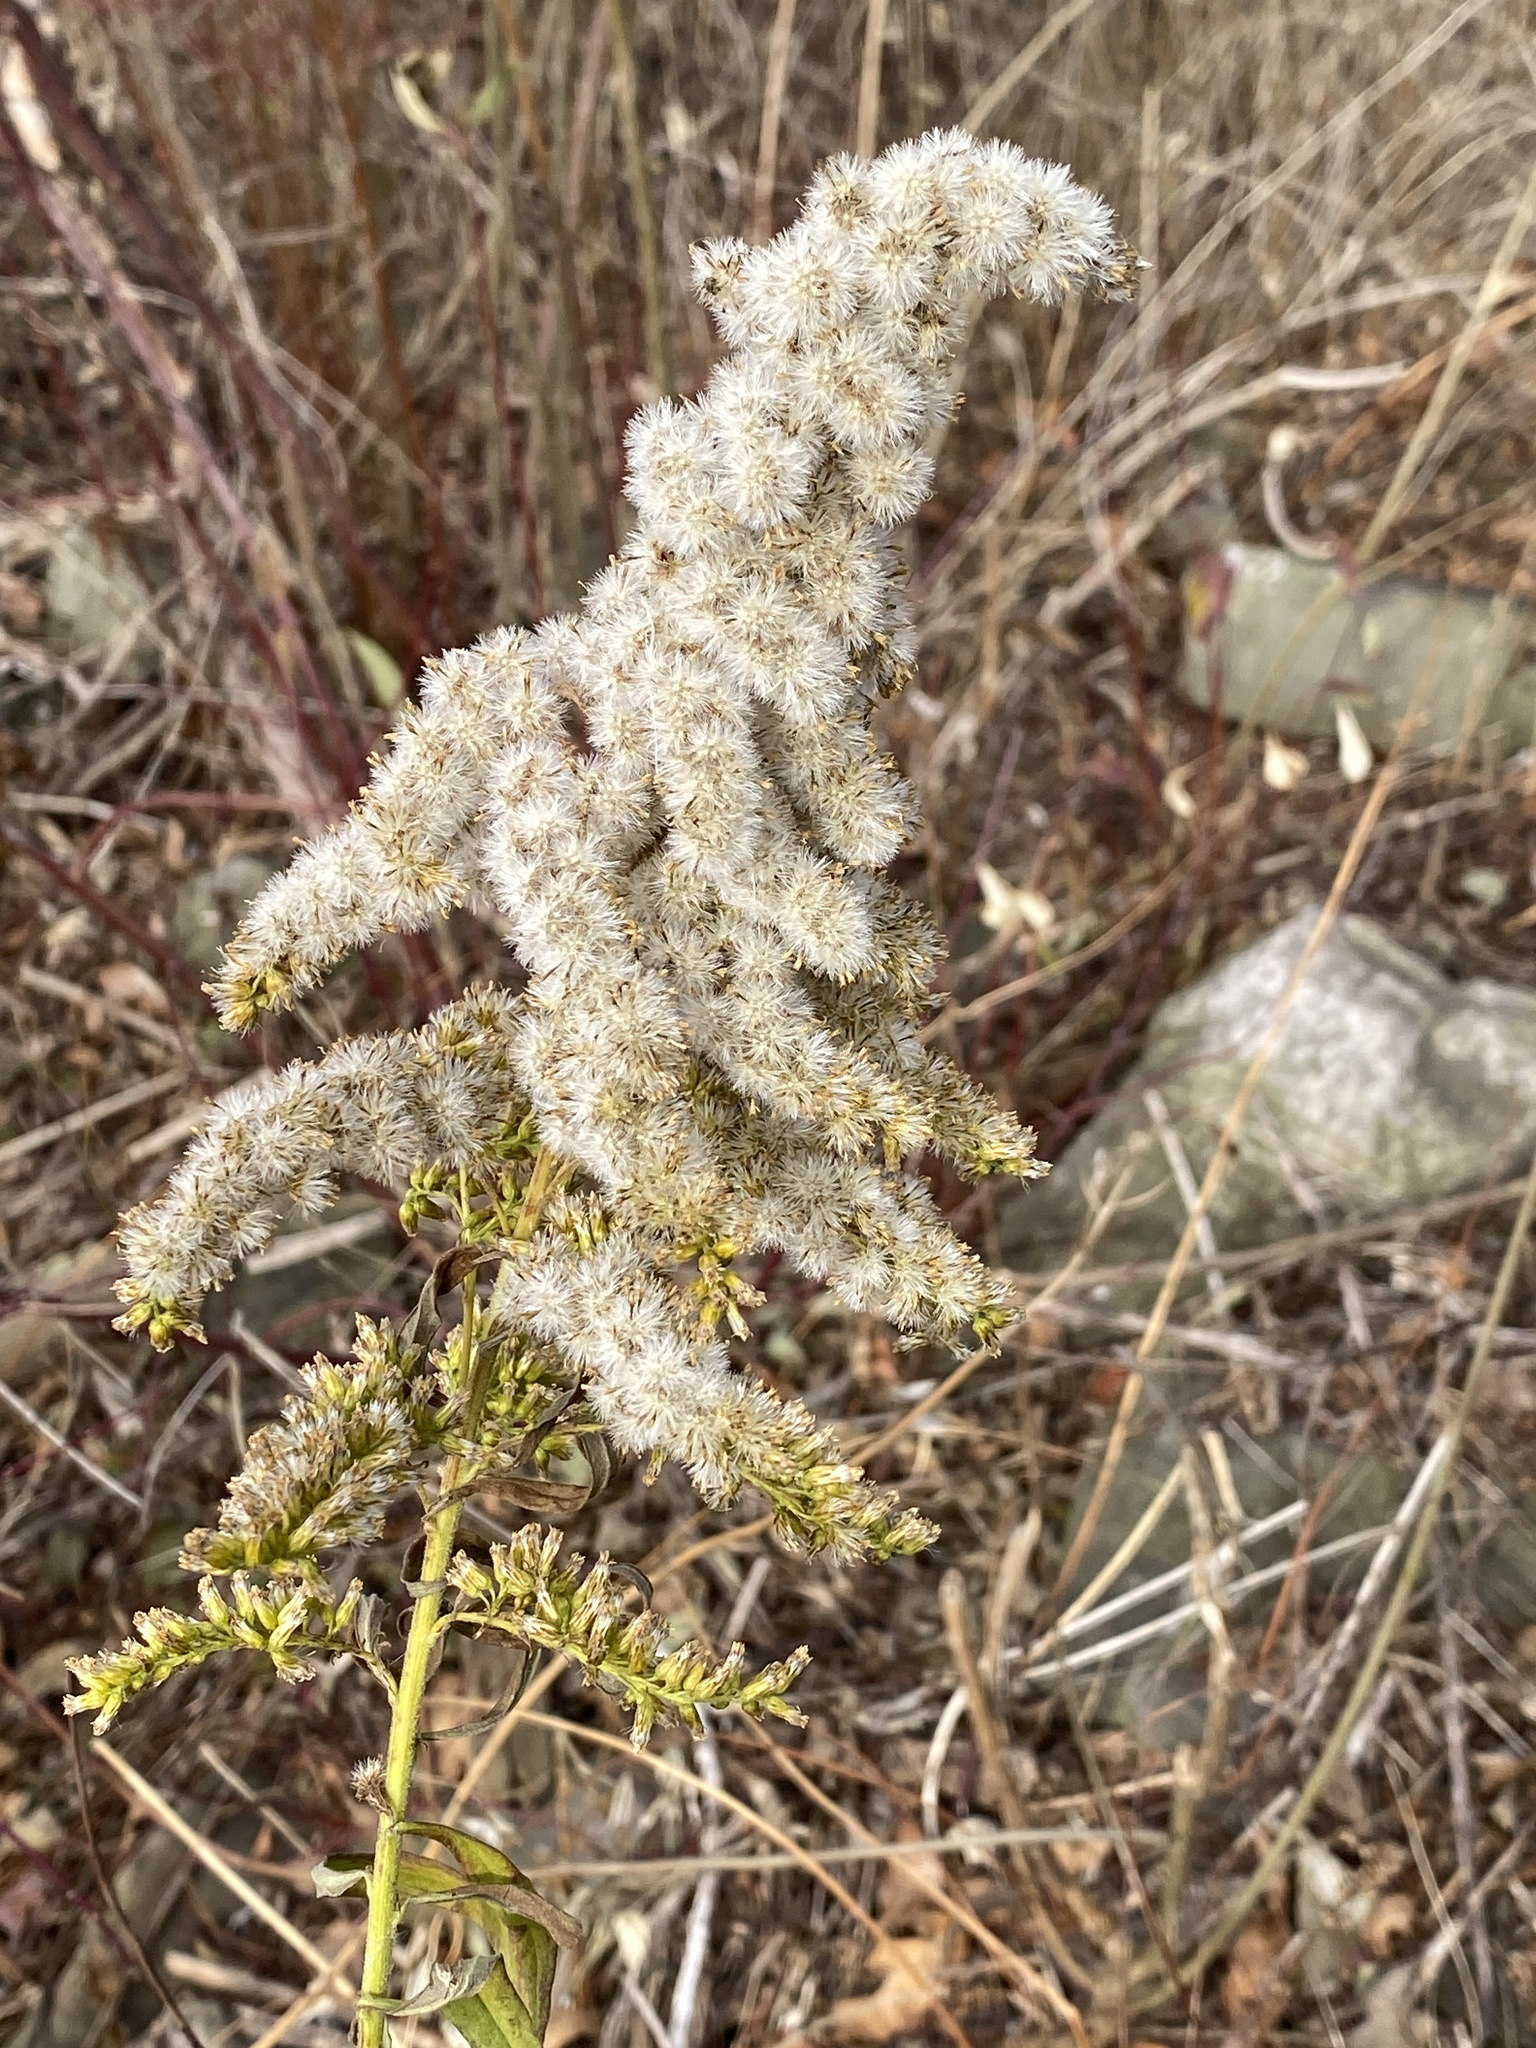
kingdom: Plantae
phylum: Tracheophyta
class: Magnoliopsida
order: Asterales
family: Asteraceae
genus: Solidago
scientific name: Solidago altissima
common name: Late goldenrod
